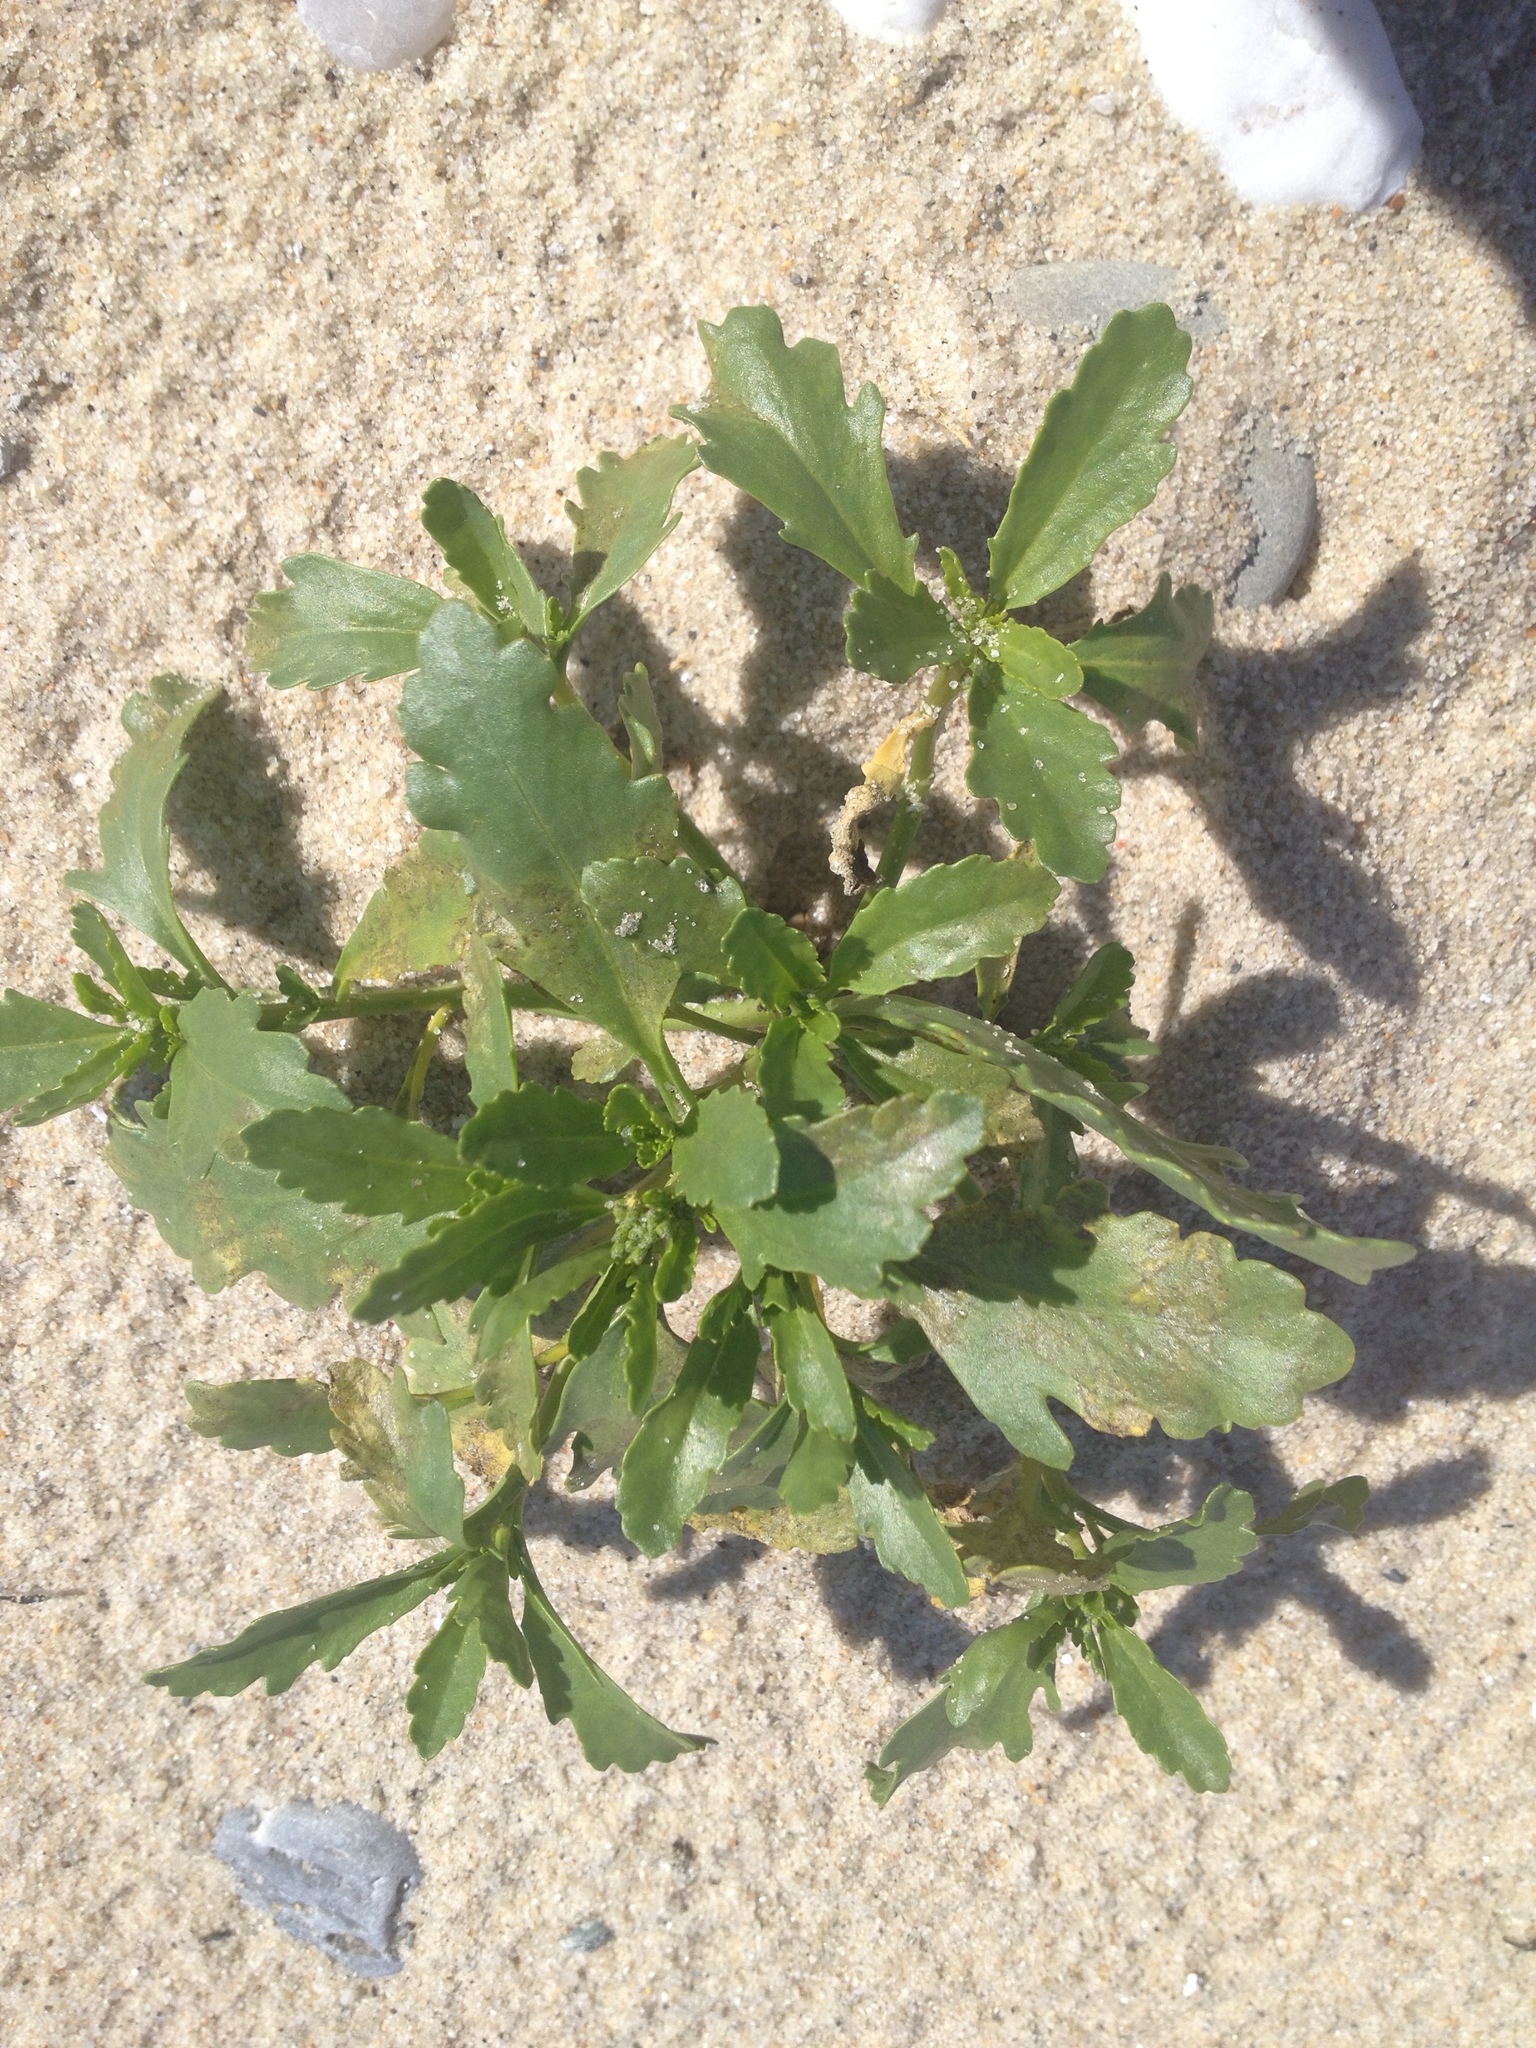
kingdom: Plantae
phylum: Tracheophyta
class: Magnoliopsida
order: Brassicales
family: Brassicaceae
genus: Cakile
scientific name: Cakile edentula
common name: American sea rocket
